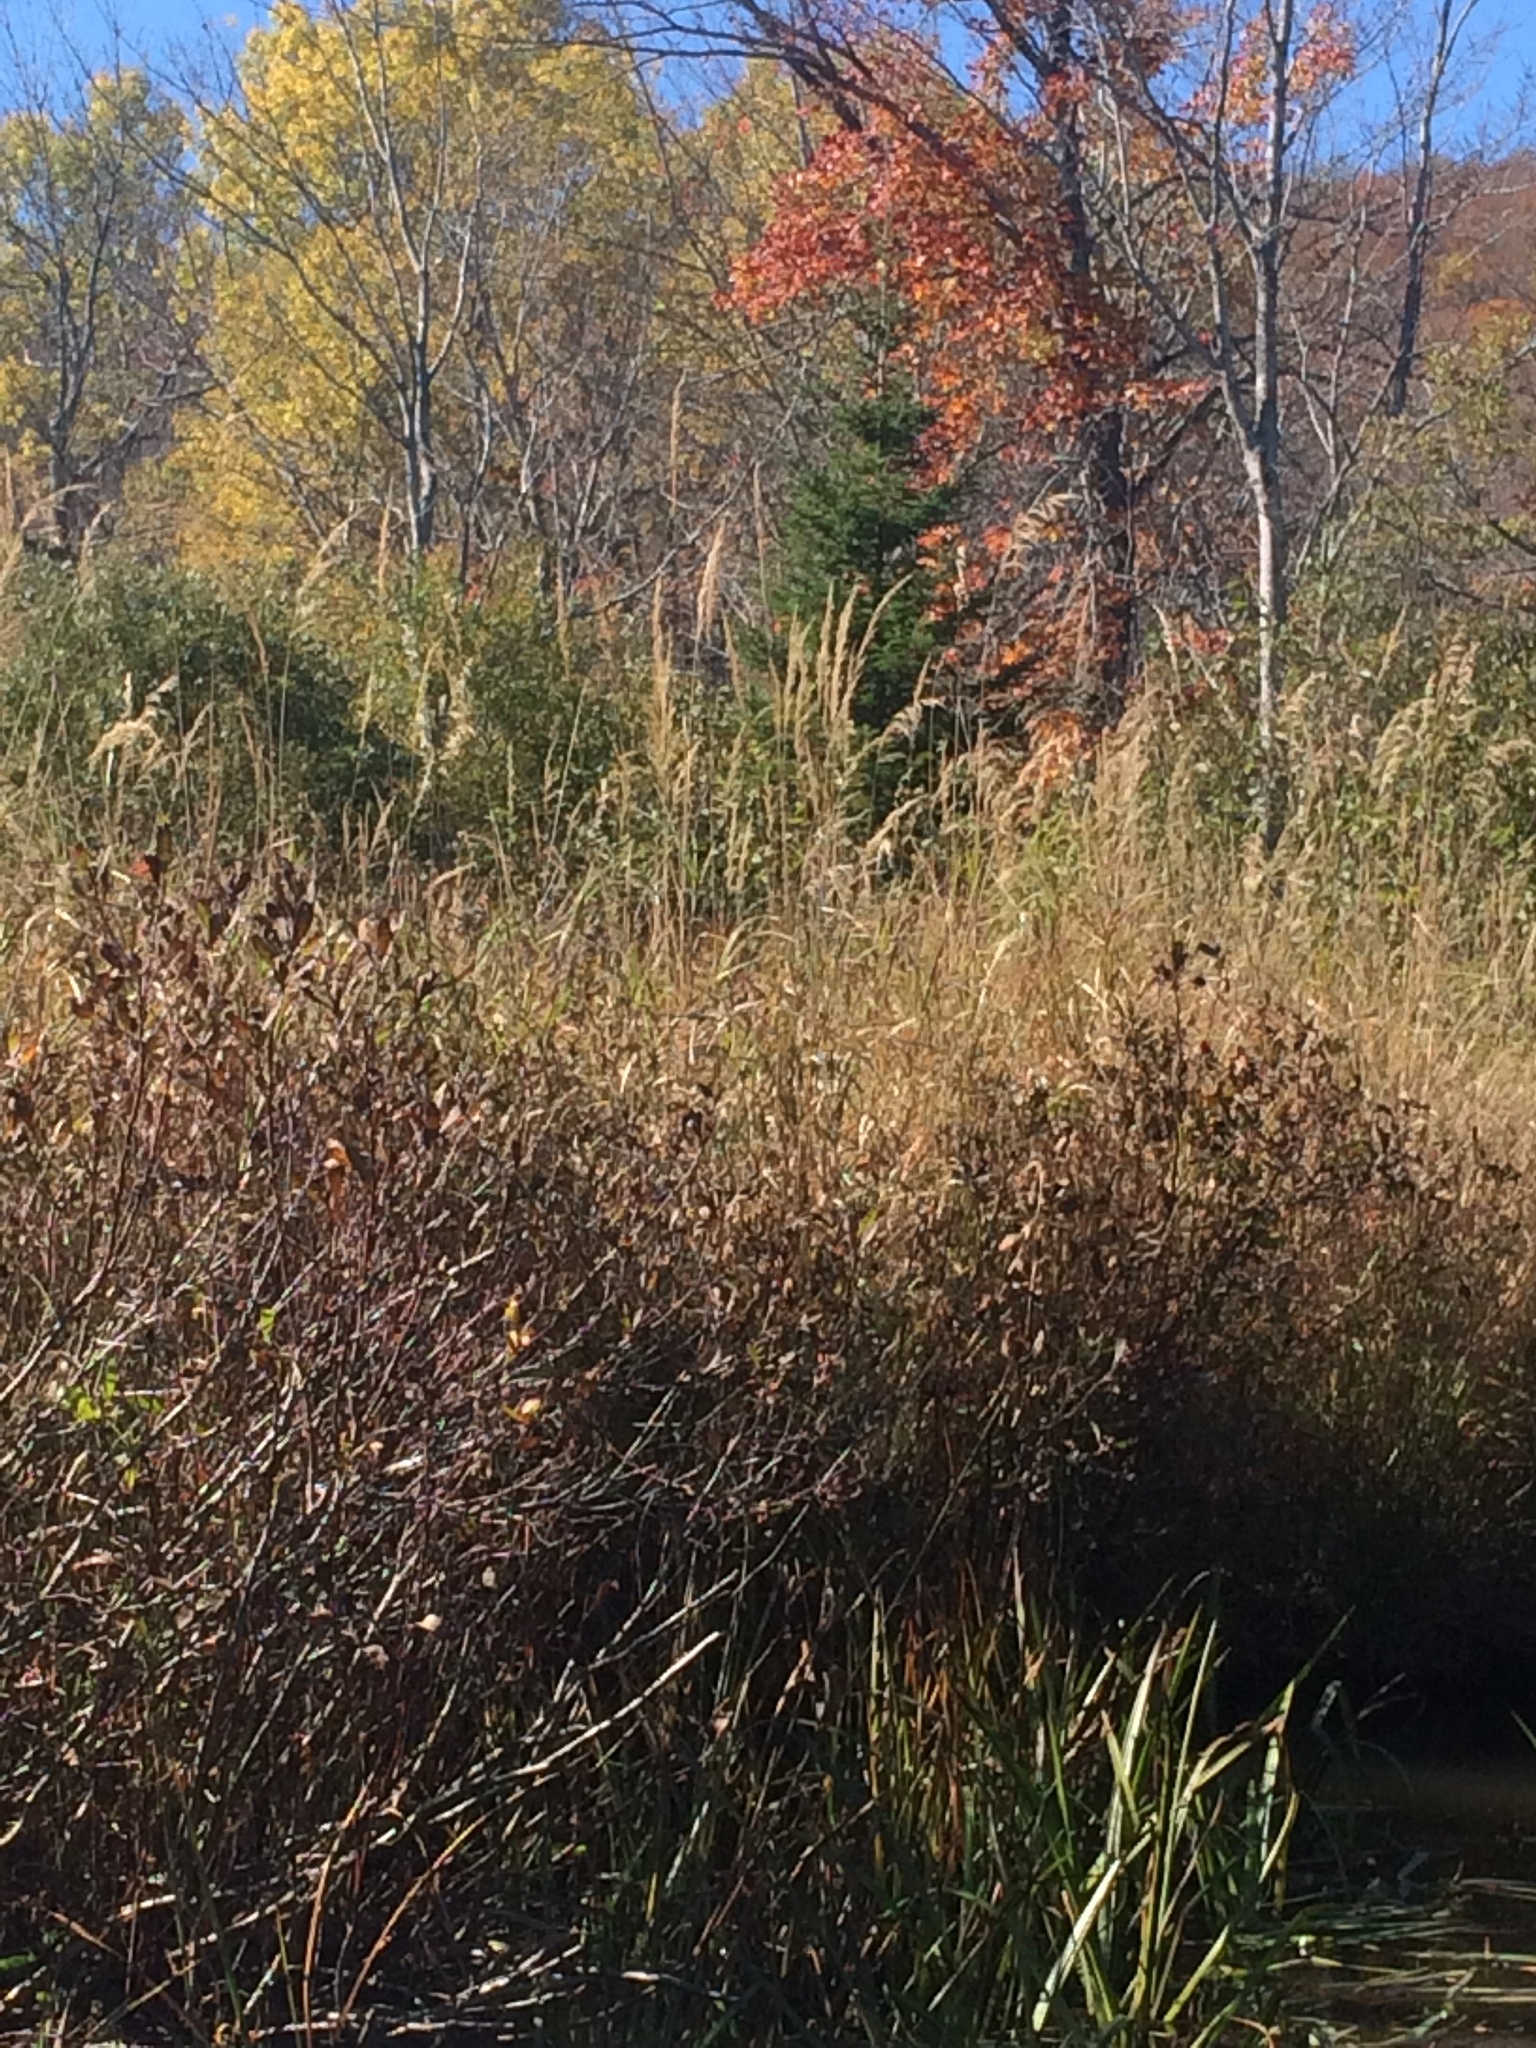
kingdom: Plantae
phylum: Tracheophyta
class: Liliopsida
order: Poales
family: Poaceae
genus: Calamagrostis
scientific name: Calamagrostis canadensis
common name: Canada bluejoint
